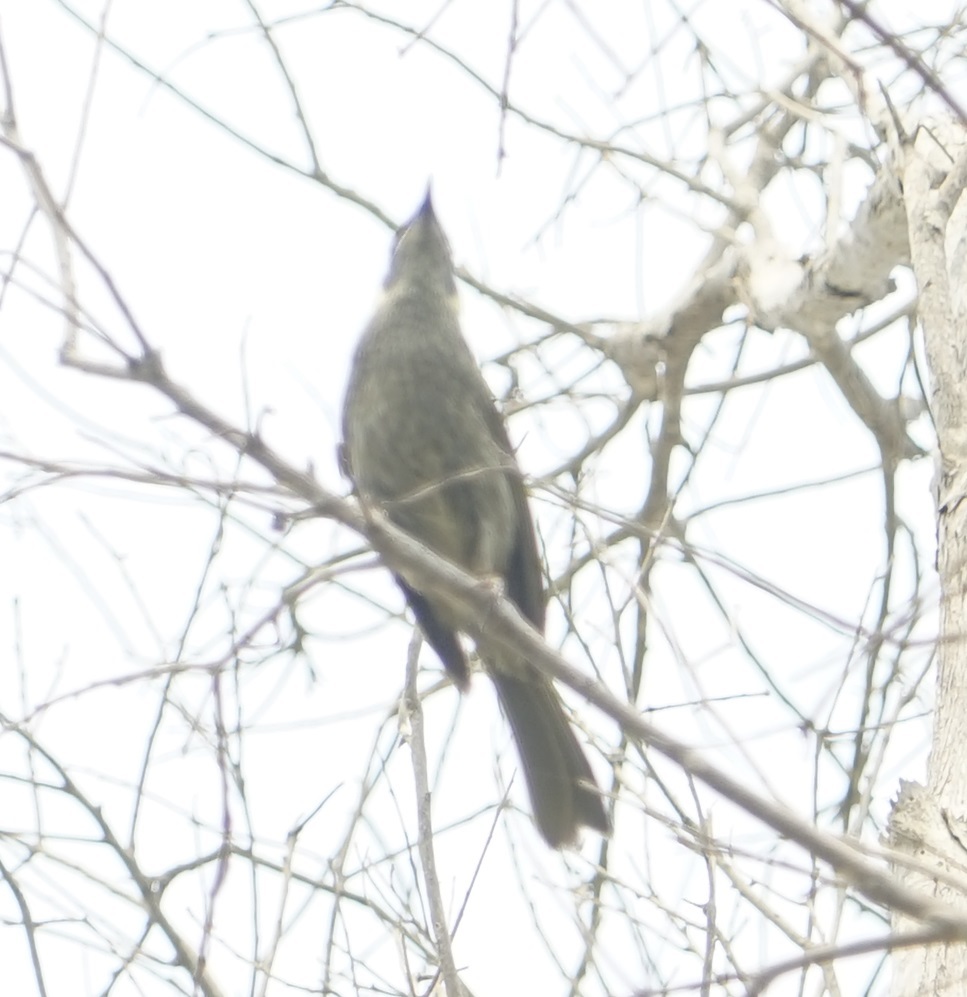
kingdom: Animalia
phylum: Chordata
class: Aves
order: Passeriformes
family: Meliphagidae
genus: Meliphaga
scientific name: Meliphaga lewinii
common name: Lewin's honeyeater
